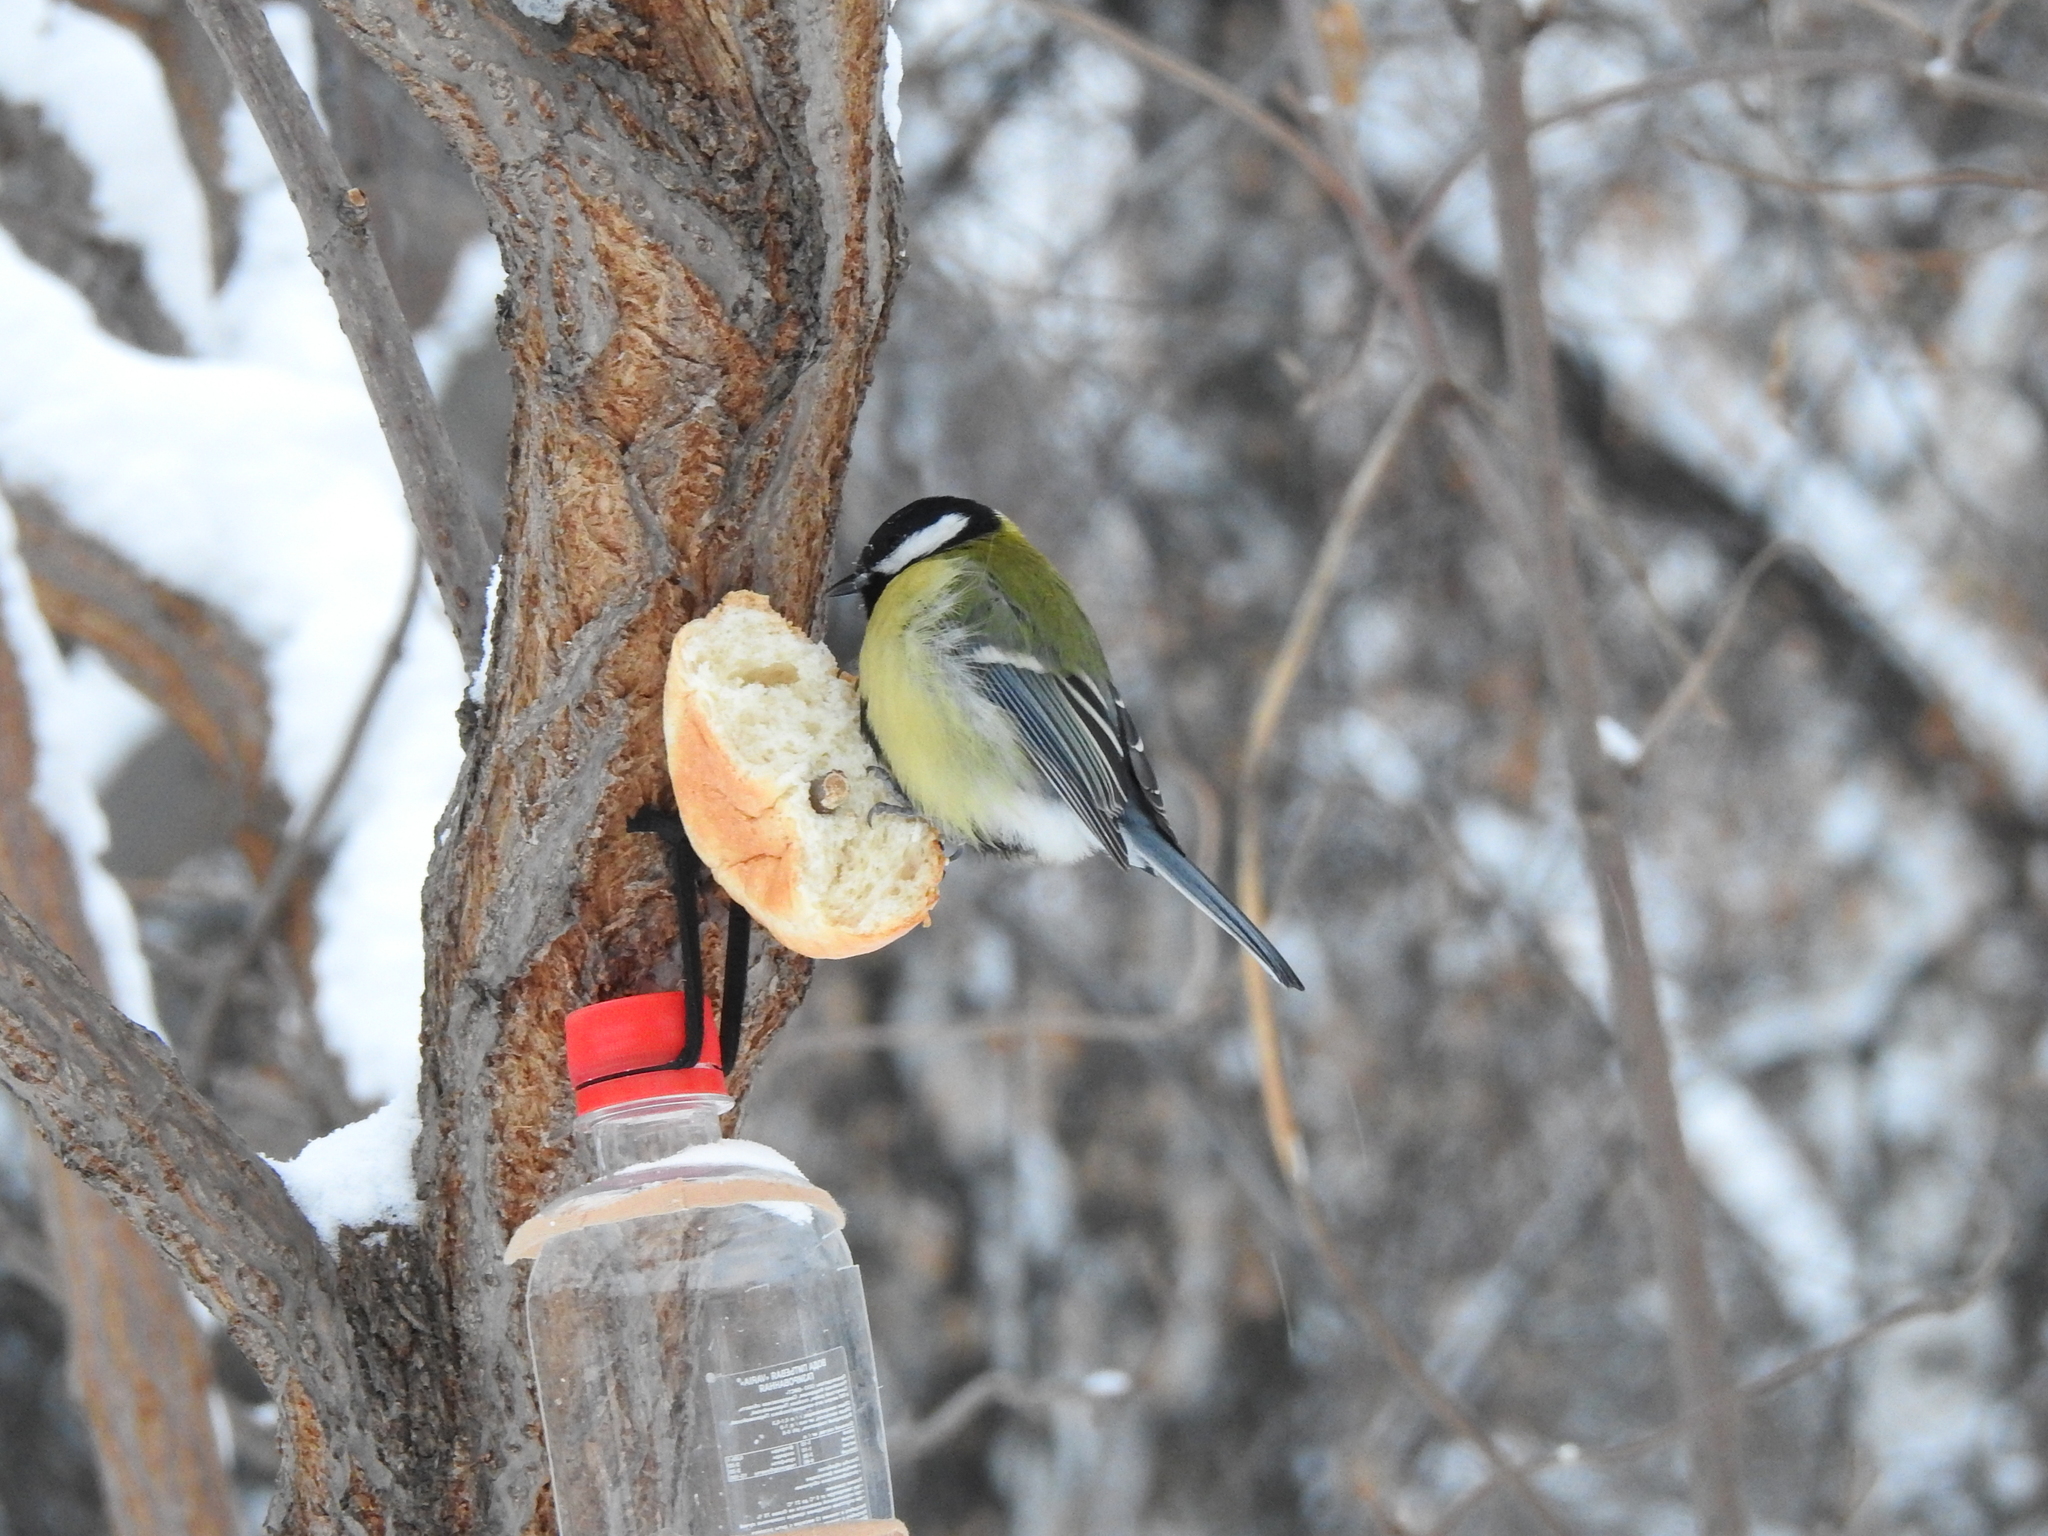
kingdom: Animalia
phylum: Chordata
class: Aves
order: Passeriformes
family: Paridae
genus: Parus
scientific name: Parus major
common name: Great tit
